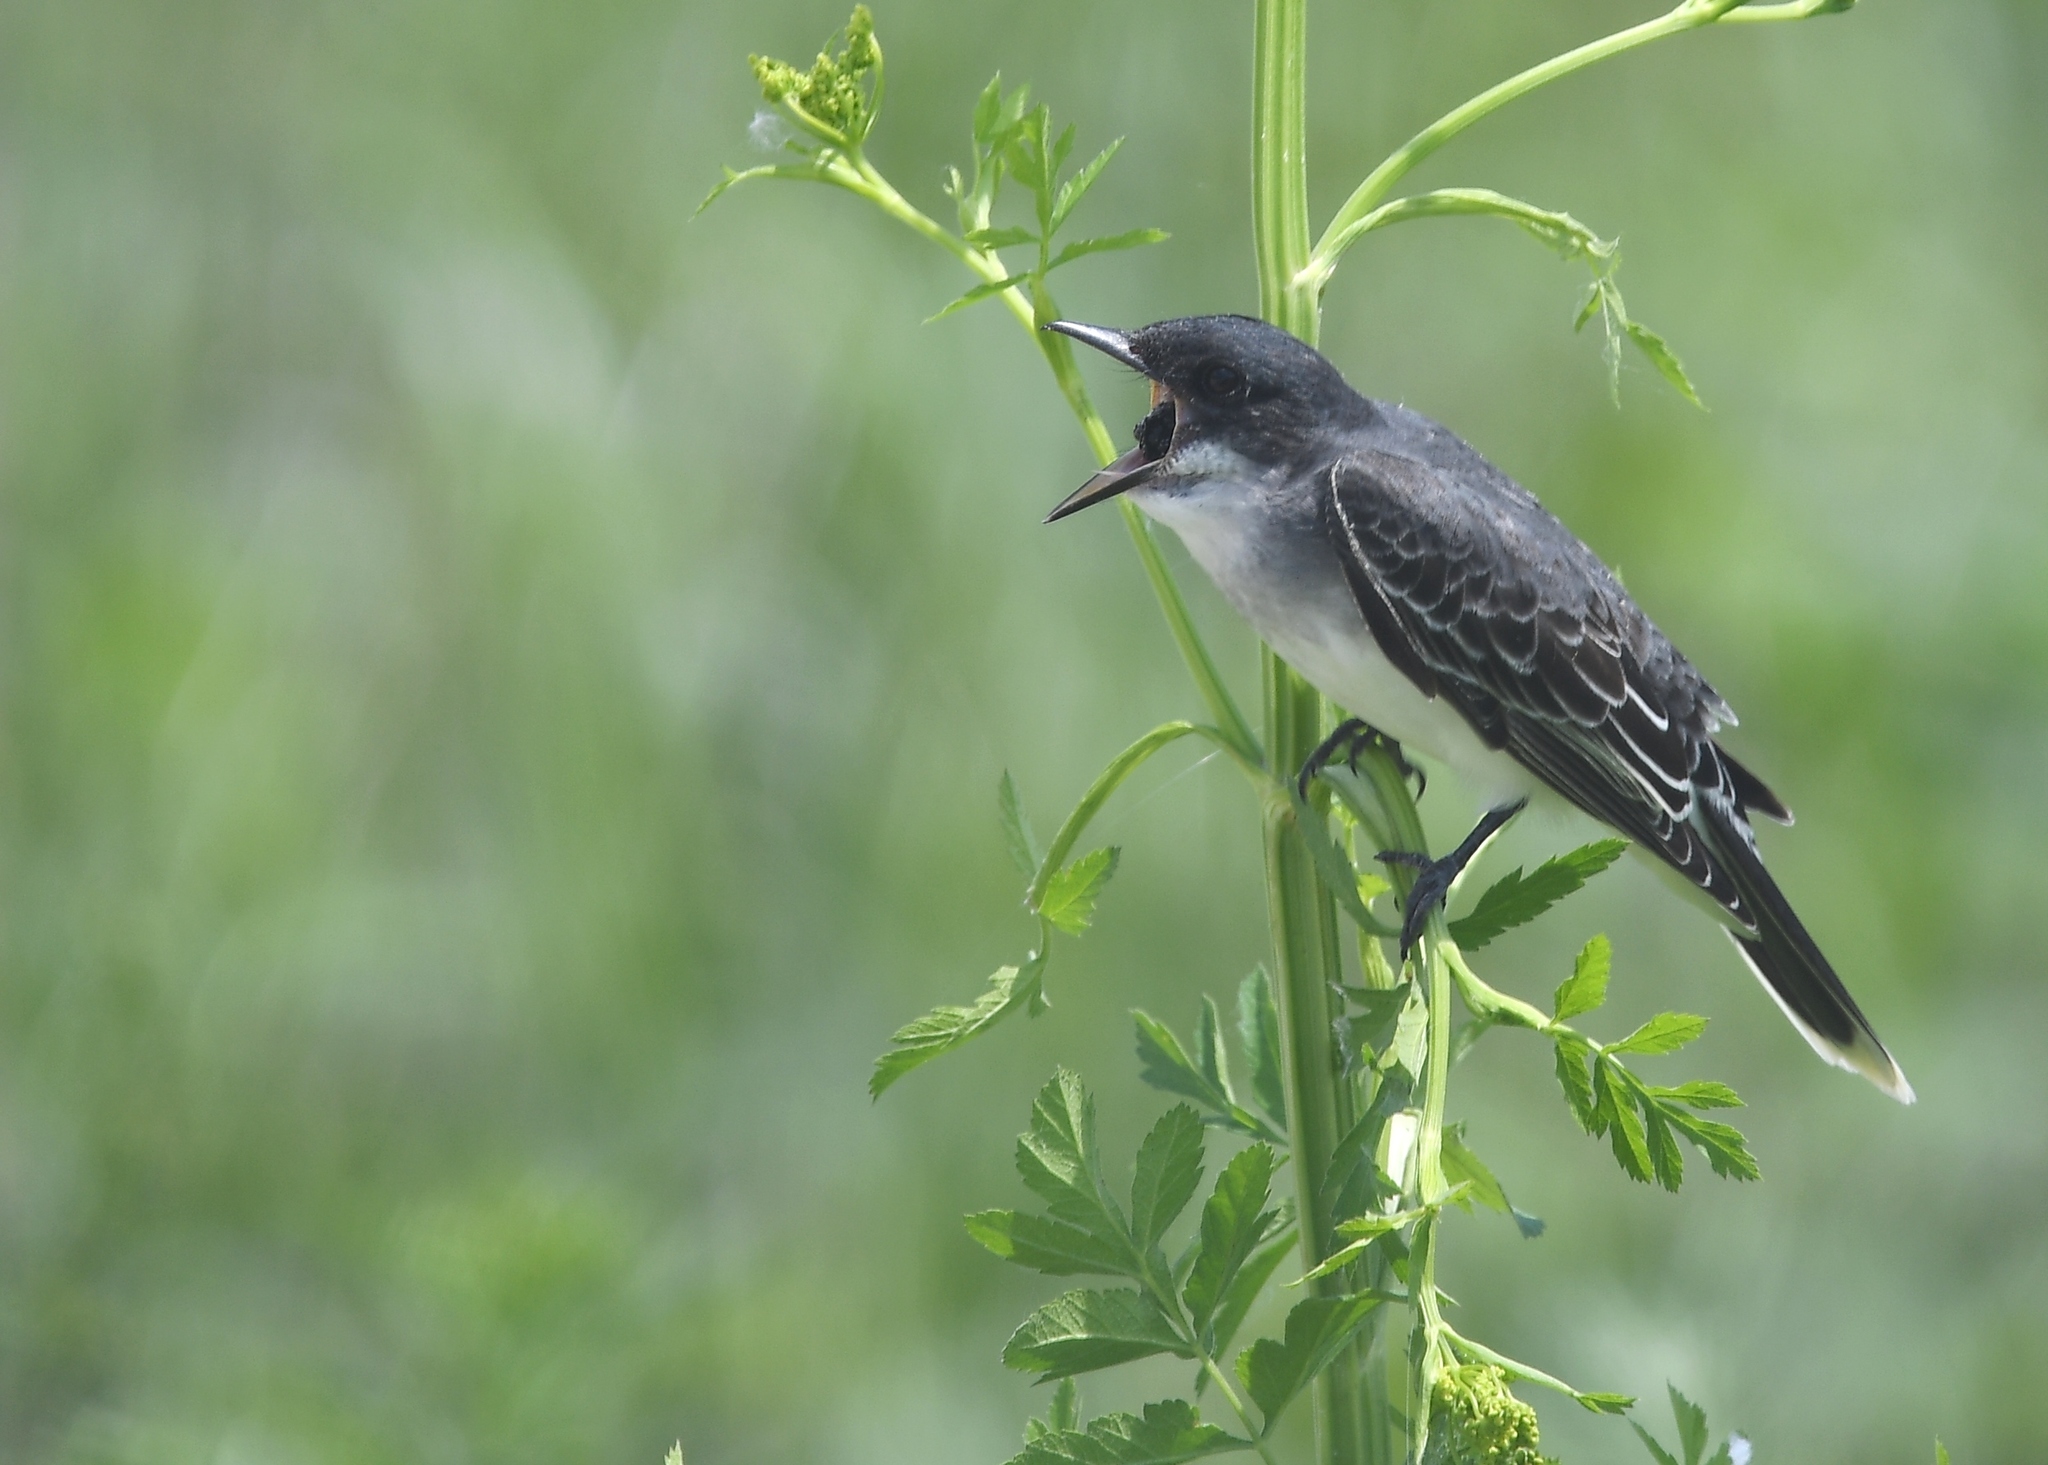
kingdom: Animalia
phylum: Chordata
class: Aves
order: Passeriformes
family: Tyrannidae
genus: Tyrannus
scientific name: Tyrannus tyrannus
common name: Eastern kingbird
